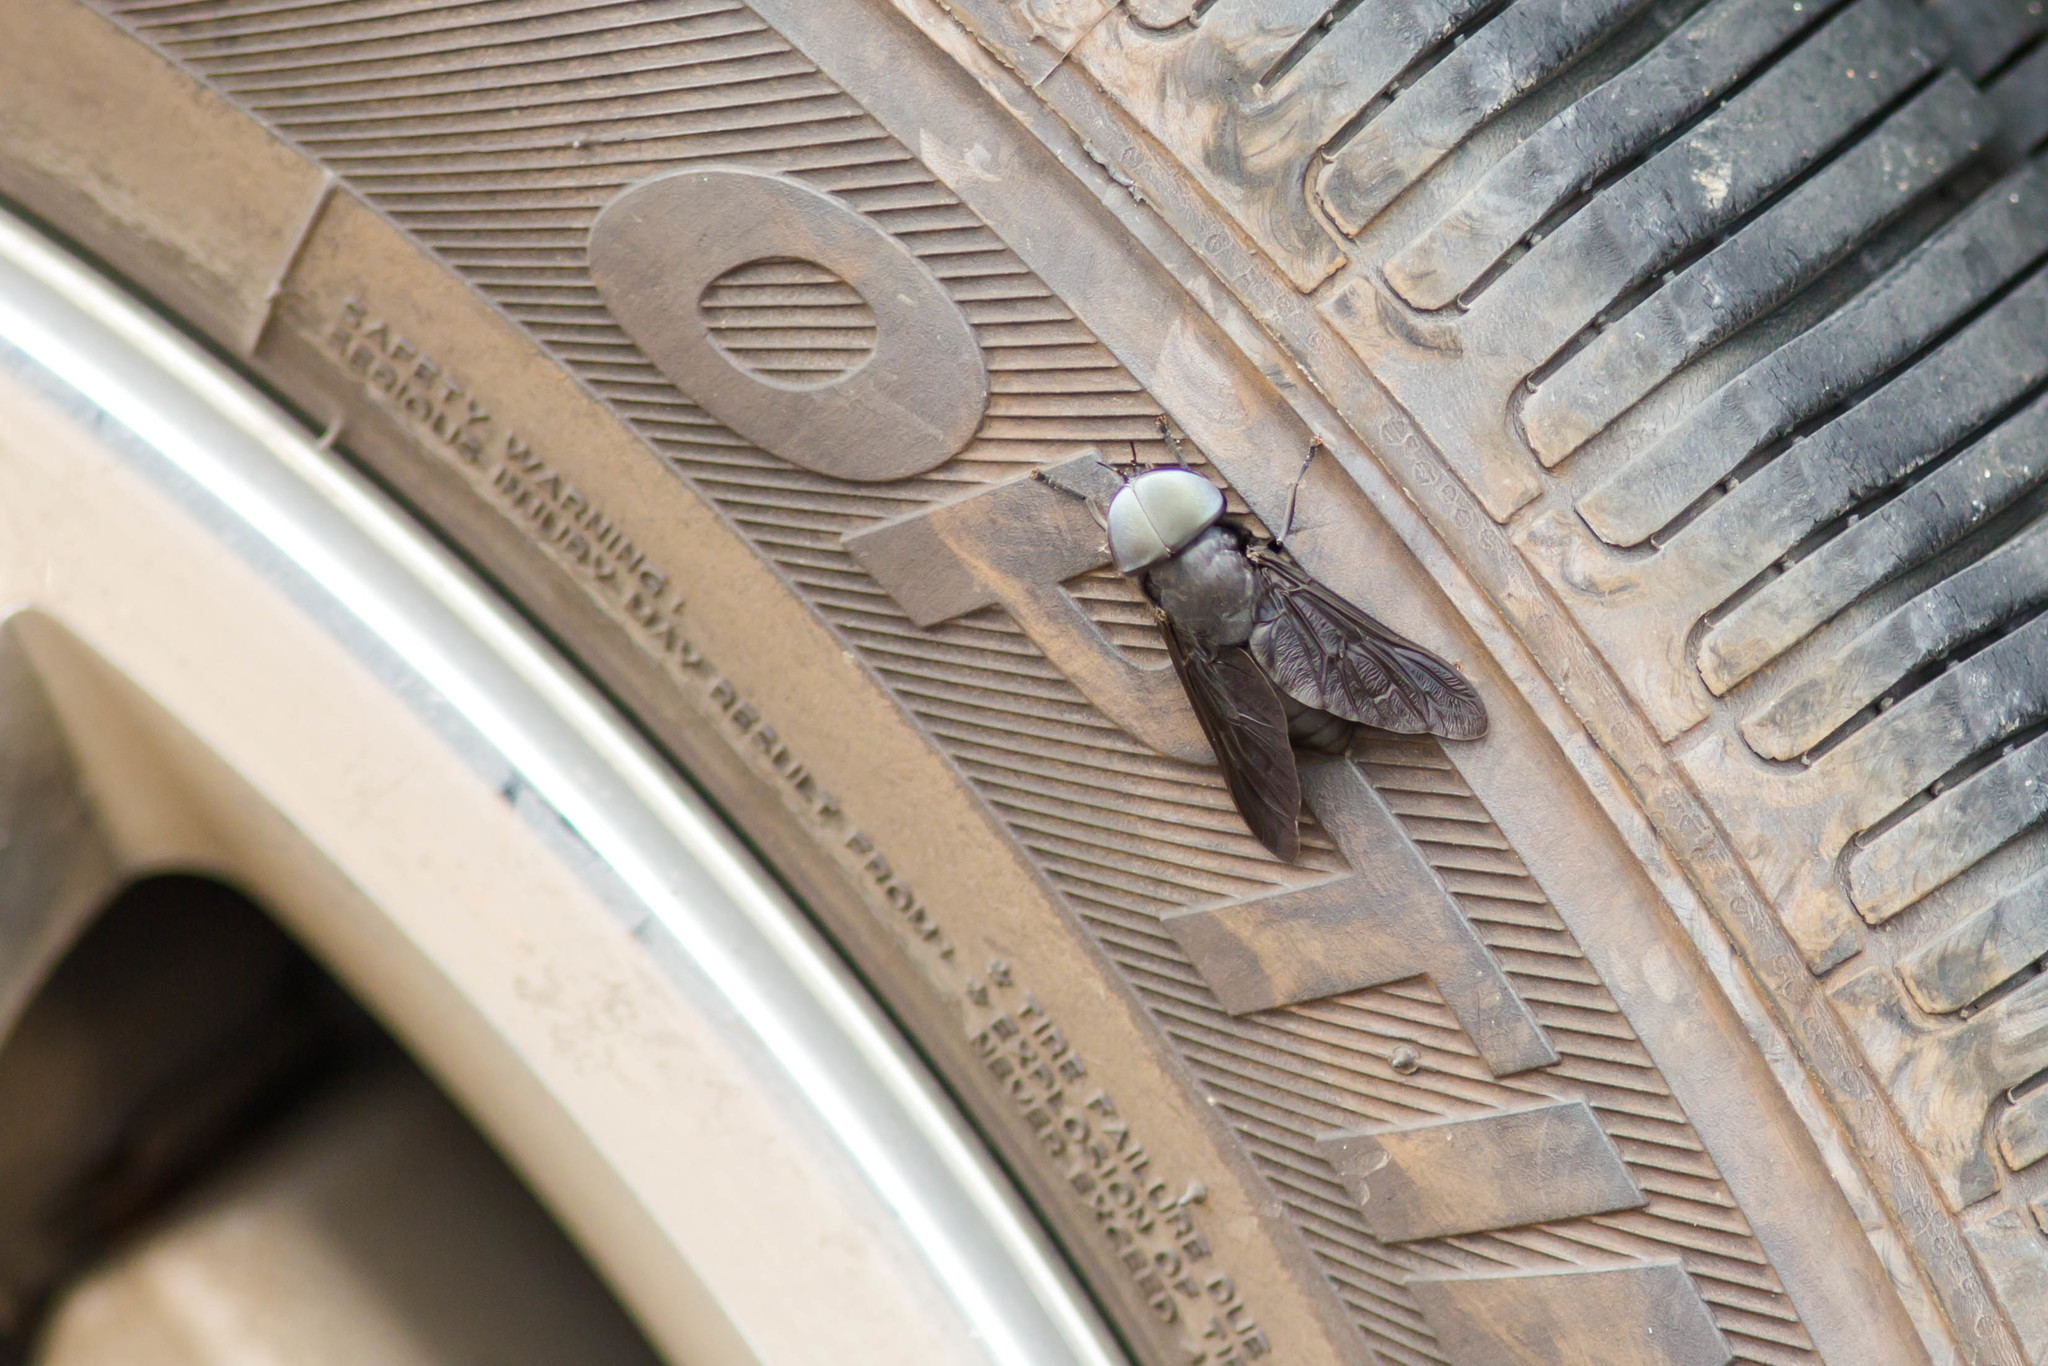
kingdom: Animalia
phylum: Arthropoda
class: Insecta
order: Diptera
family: Tabanidae
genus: Tabanus
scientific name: Tabanus atratus
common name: Black horse fly
